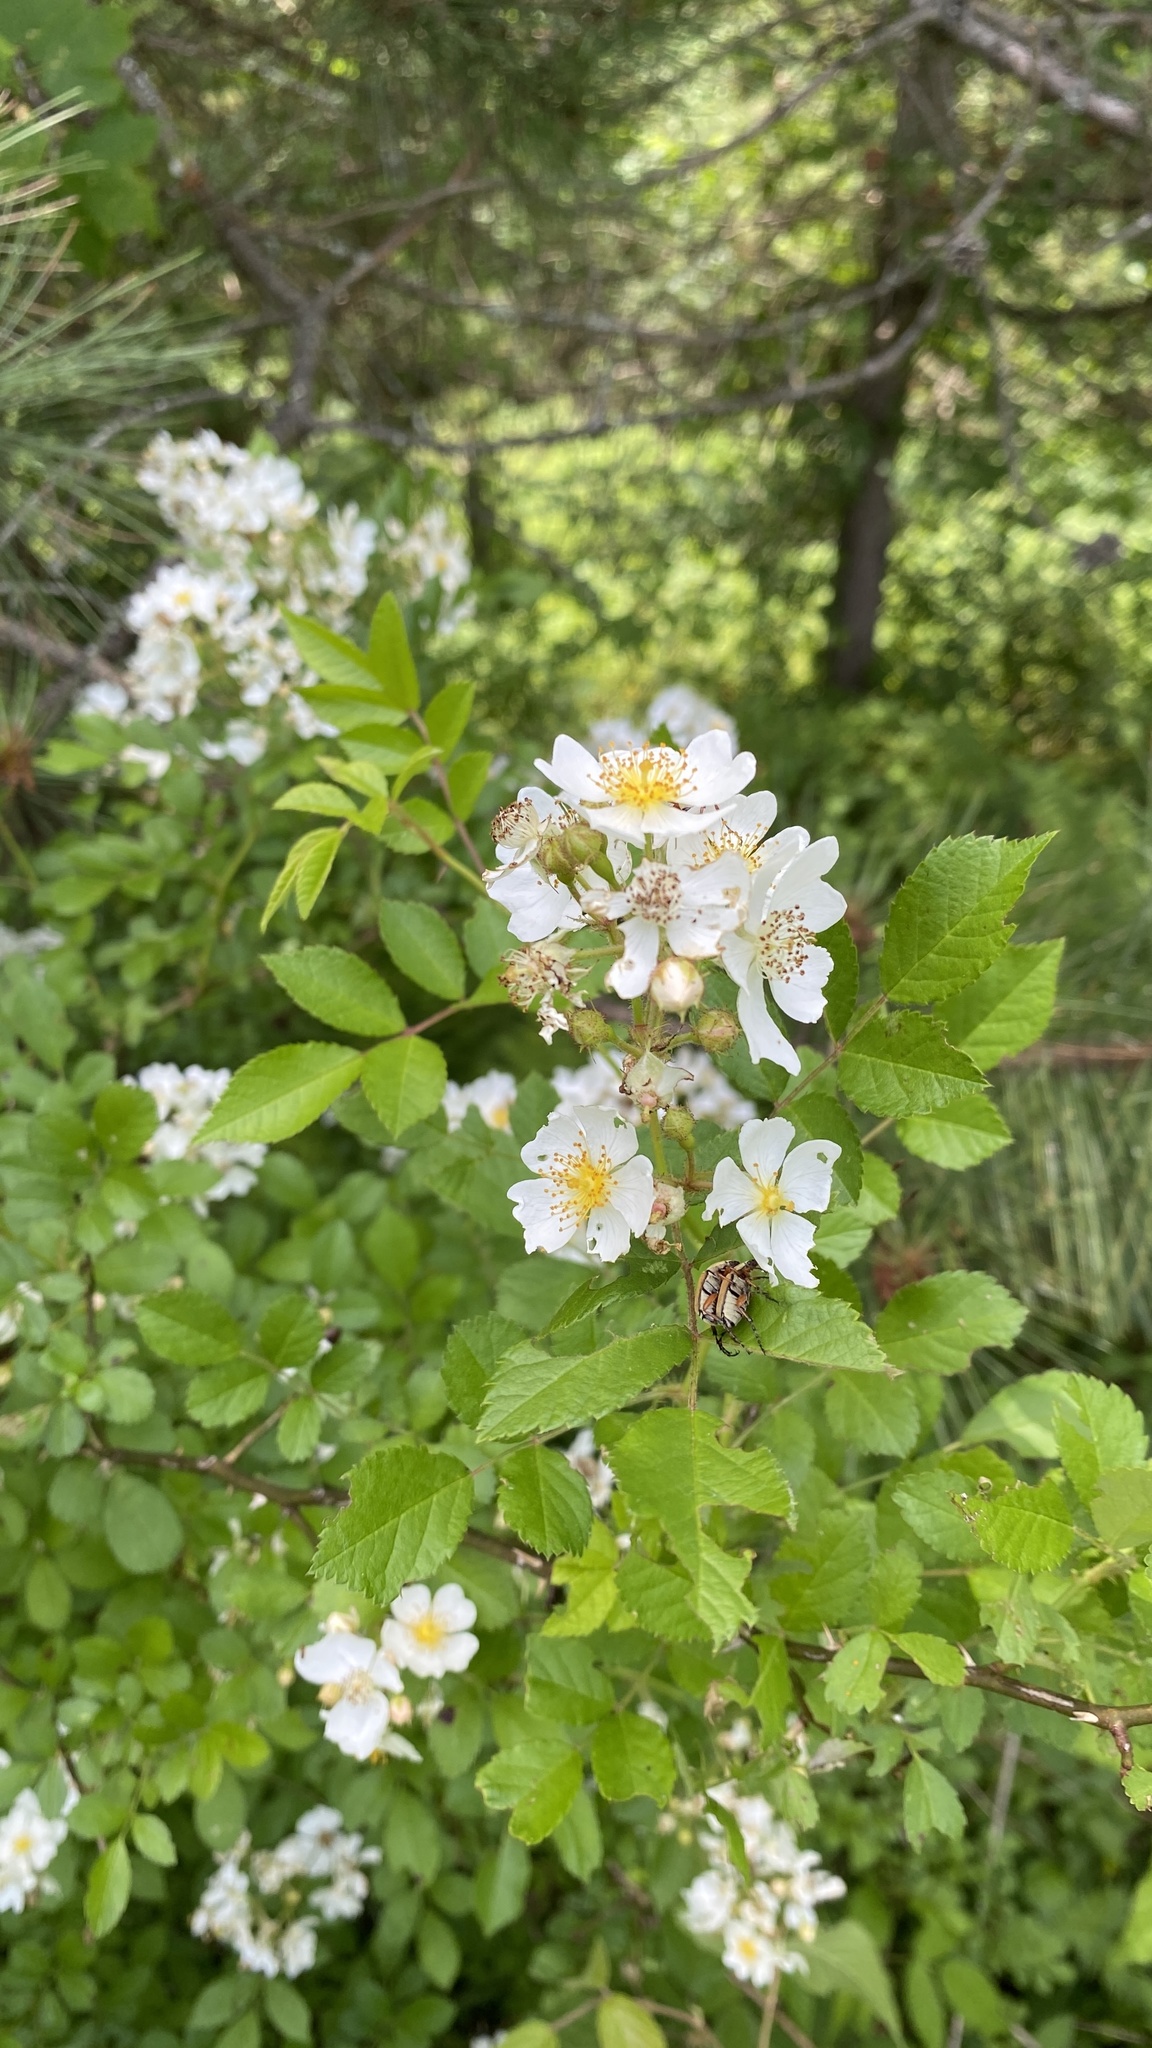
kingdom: Plantae
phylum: Tracheophyta
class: Magnoliopsida
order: Rosales
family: Rosaceae
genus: Rosa
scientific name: Rosa multiflora
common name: Multiflora rose
